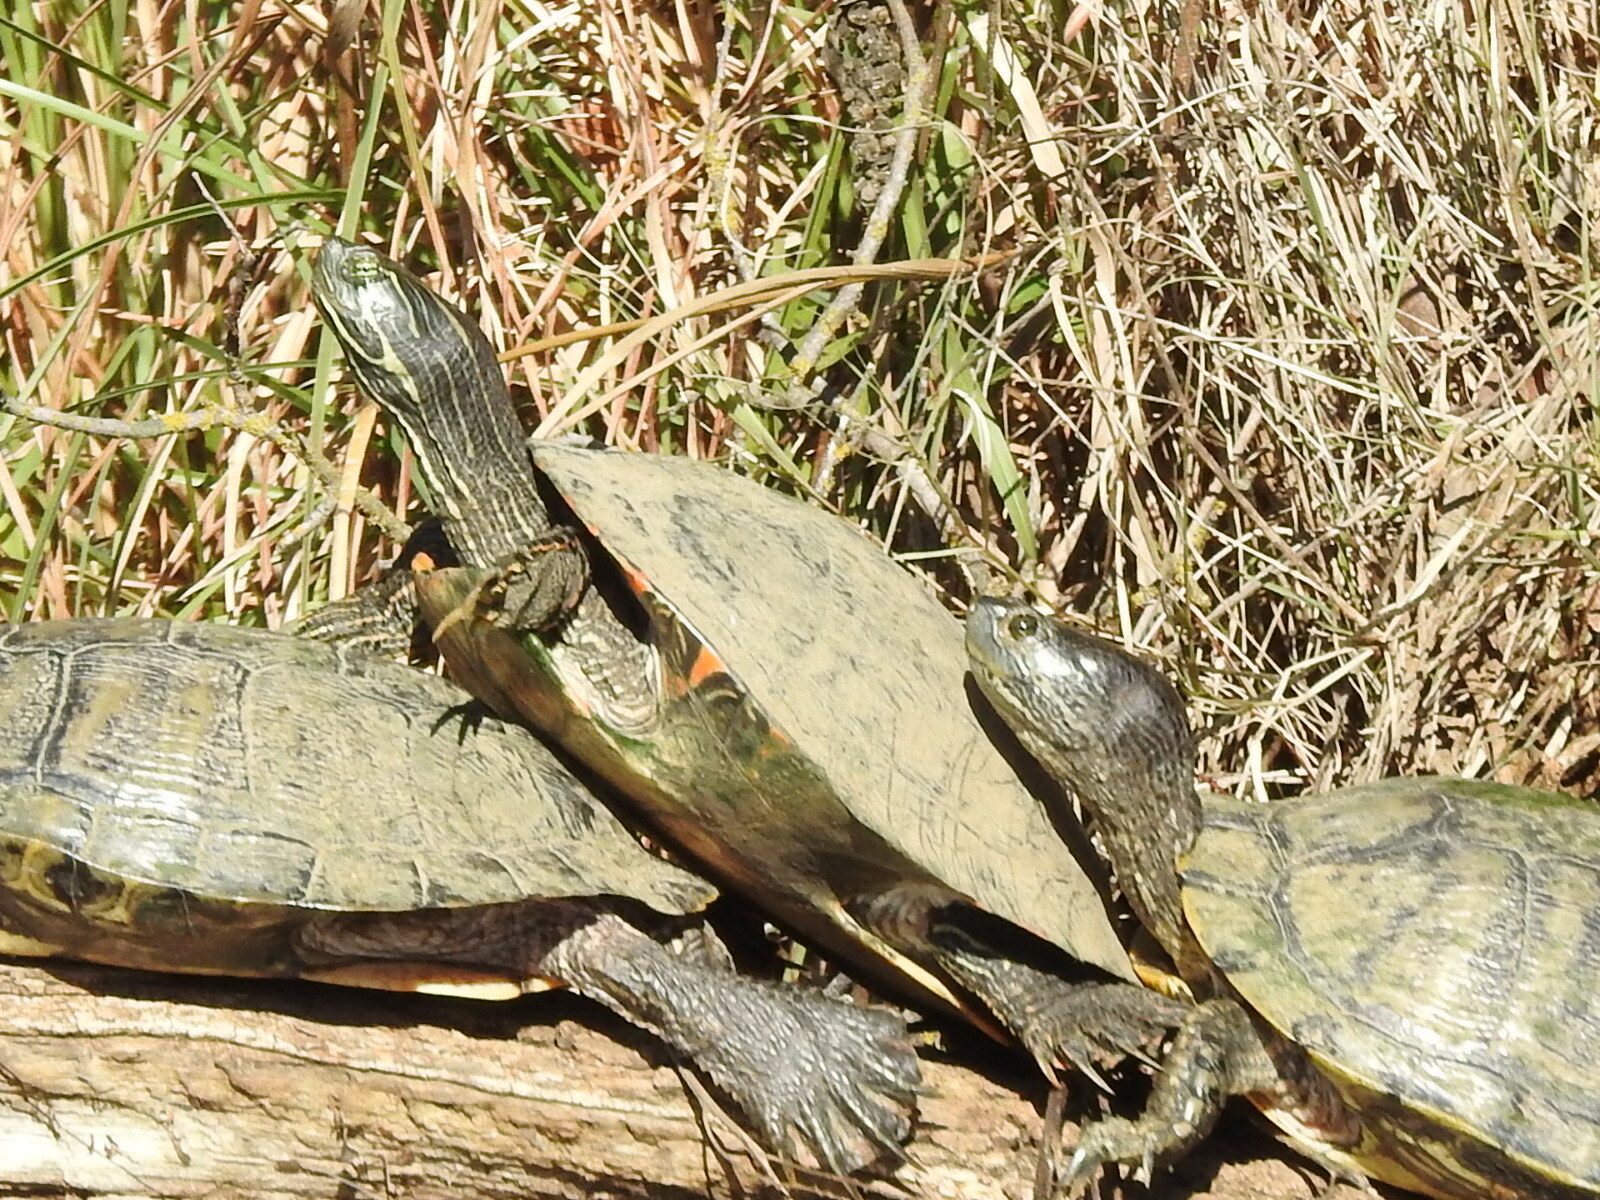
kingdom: Animalia
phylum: Chordata
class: Testudines
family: Emydidae
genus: Pseudemys
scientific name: Pseudemys texana
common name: Texas river cooter
